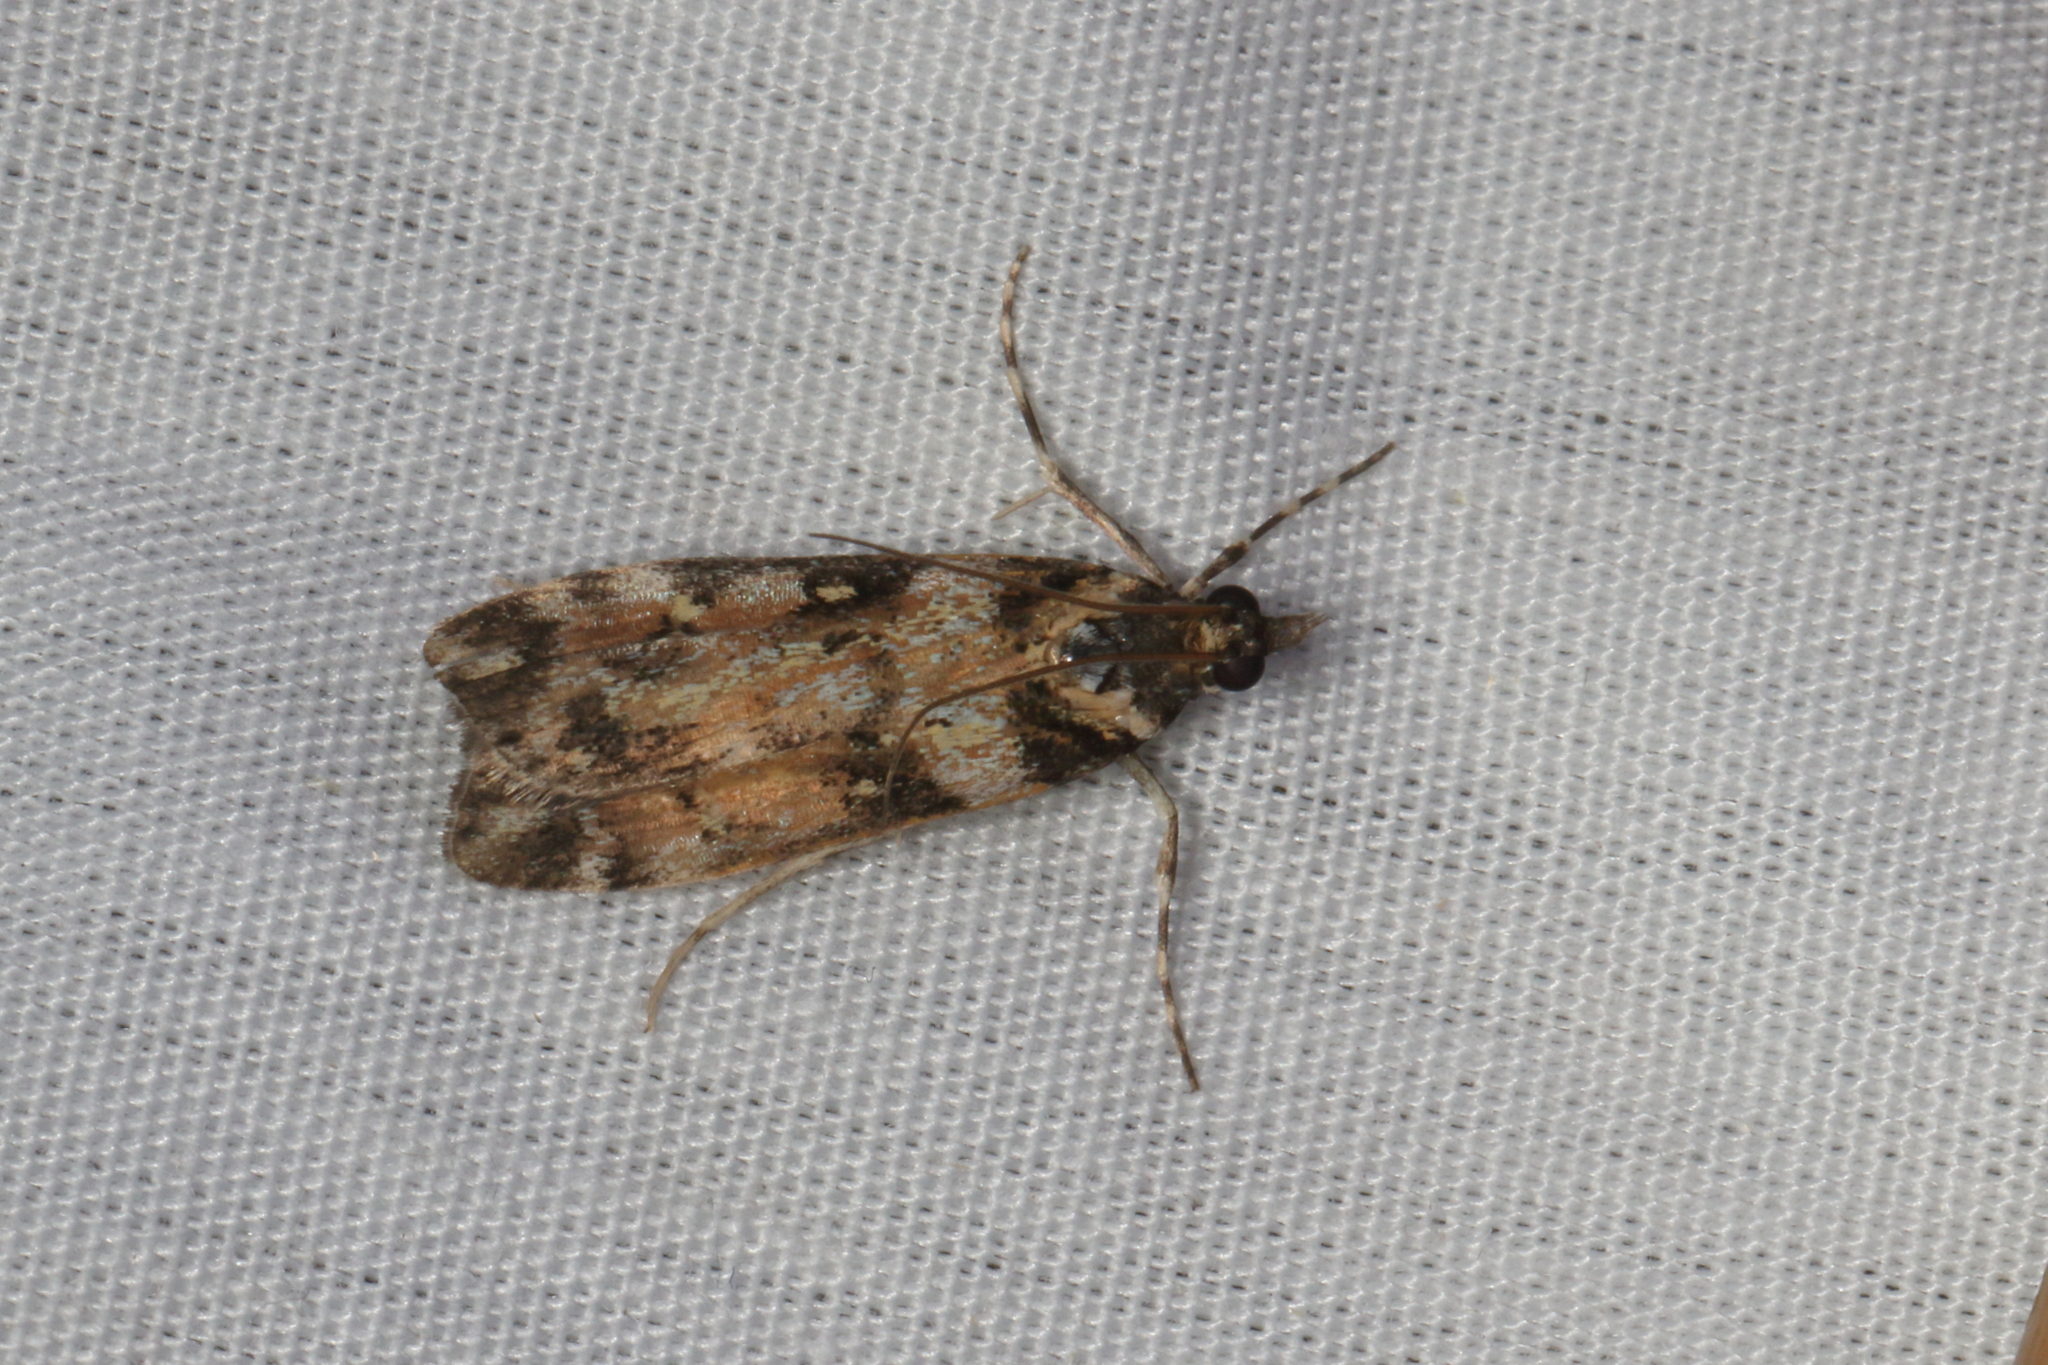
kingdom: Animalia
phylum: Arthropoda
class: Insecta
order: Lepidoptera
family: Crambidae
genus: Eudonia
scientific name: Eudonia diphtheralis
